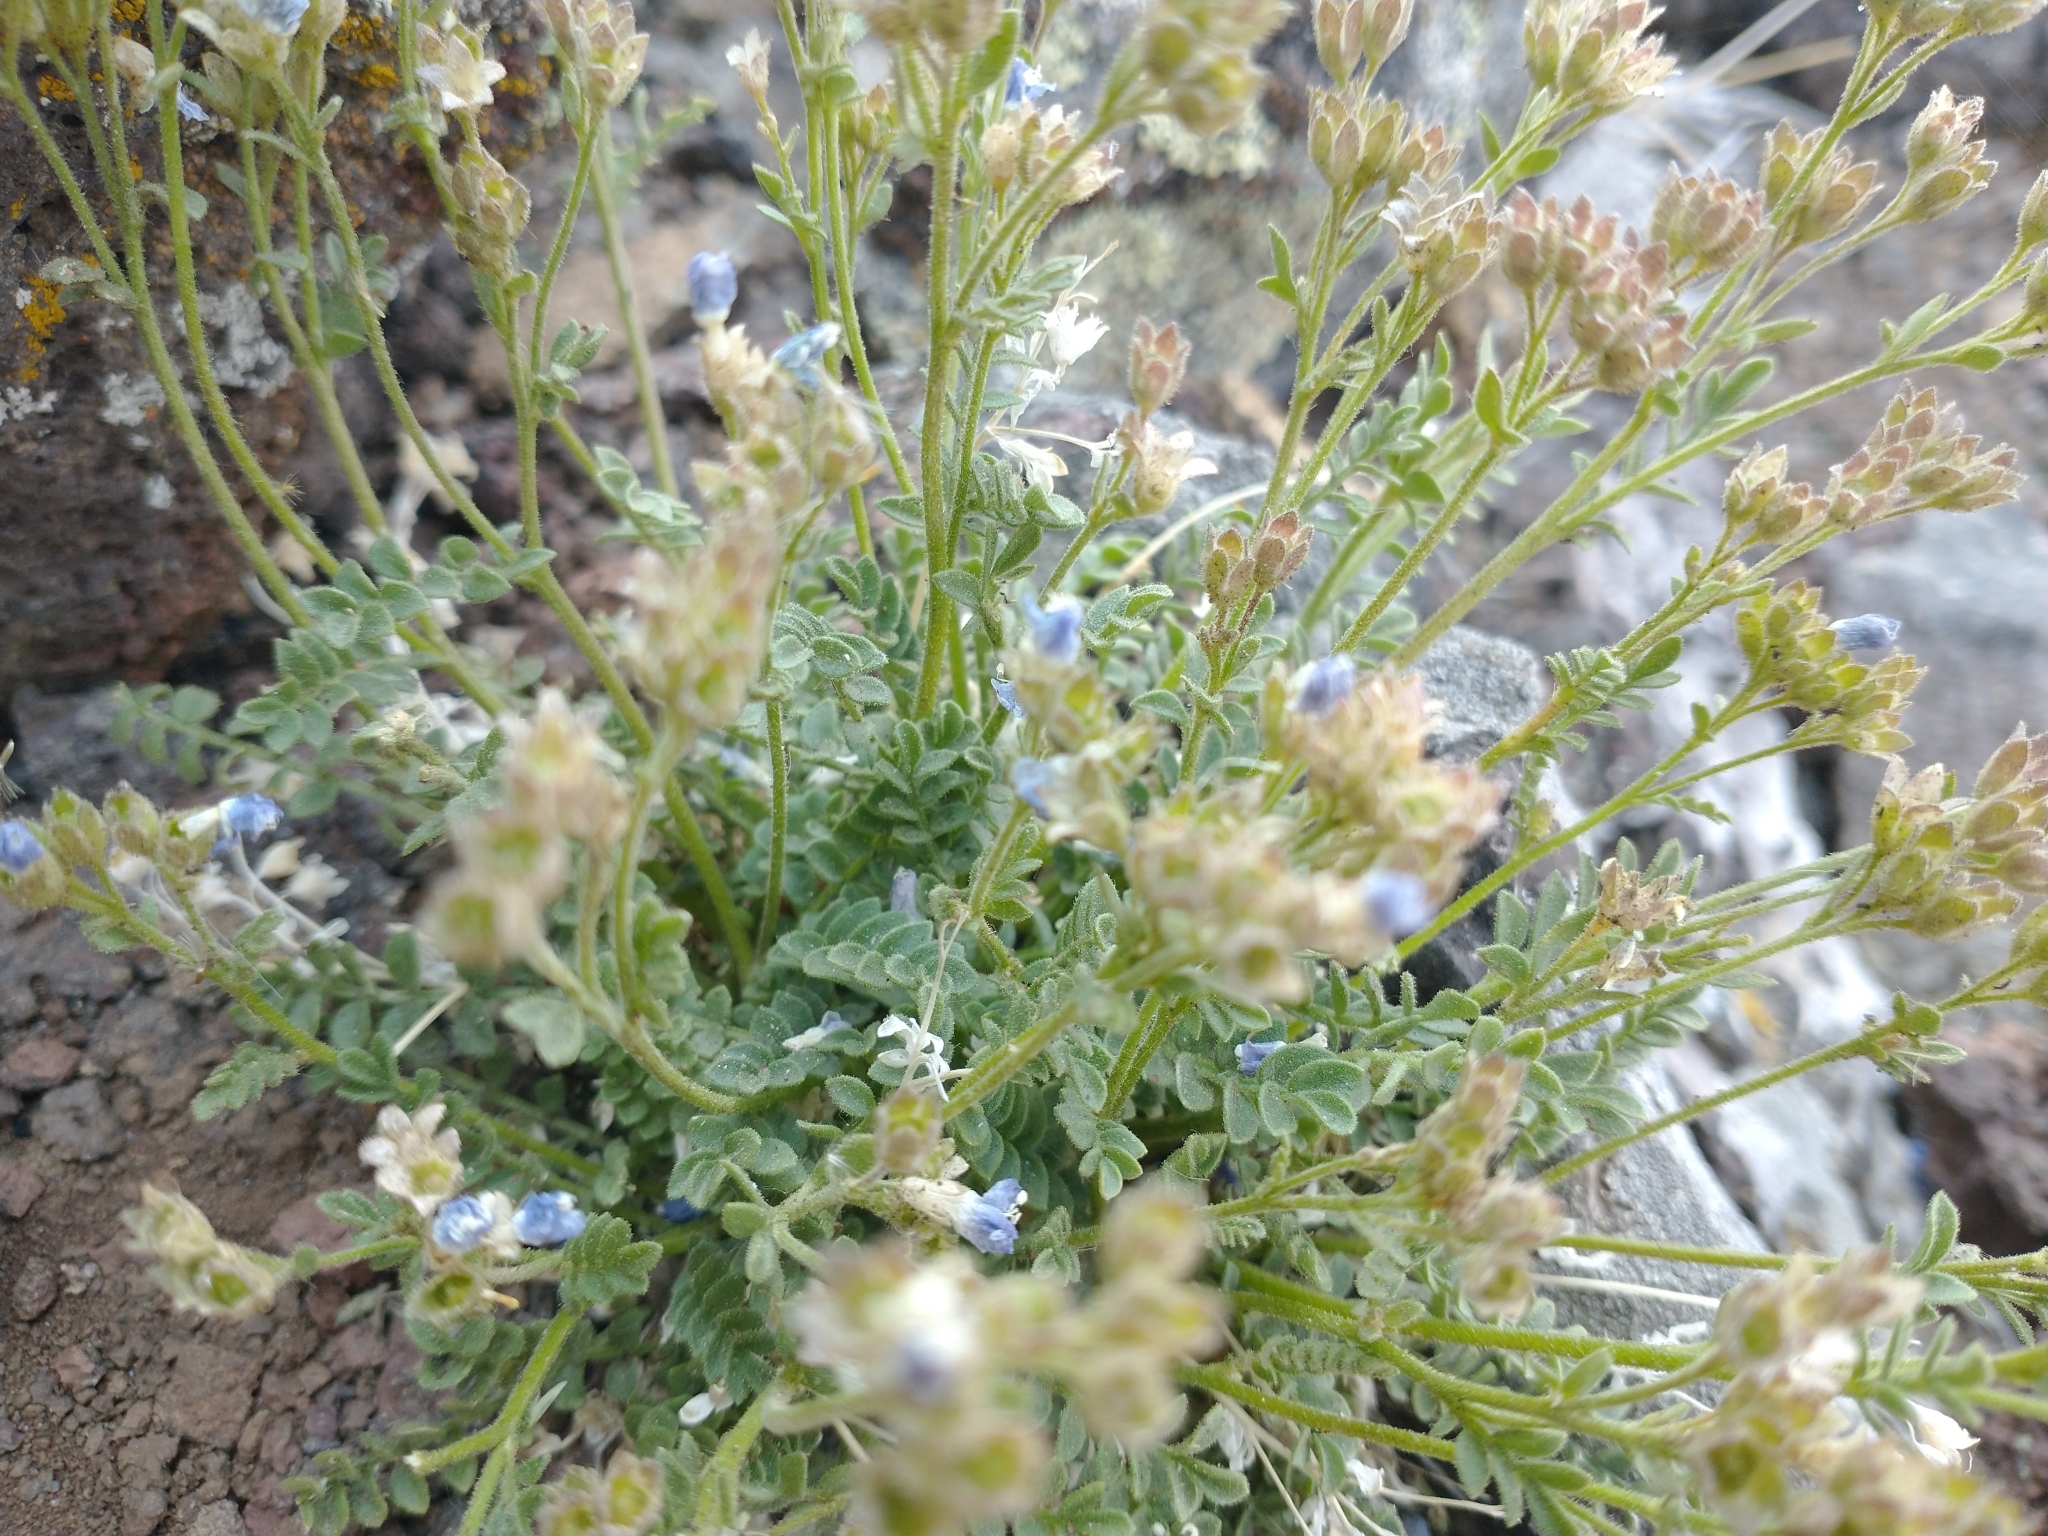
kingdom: Plantae
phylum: Tracheophyta
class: Magnoliopsida
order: Ericales
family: Polemoniaceae
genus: Polemonium
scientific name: Polemonium pulcherrimum
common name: Short jacob's-ladder
